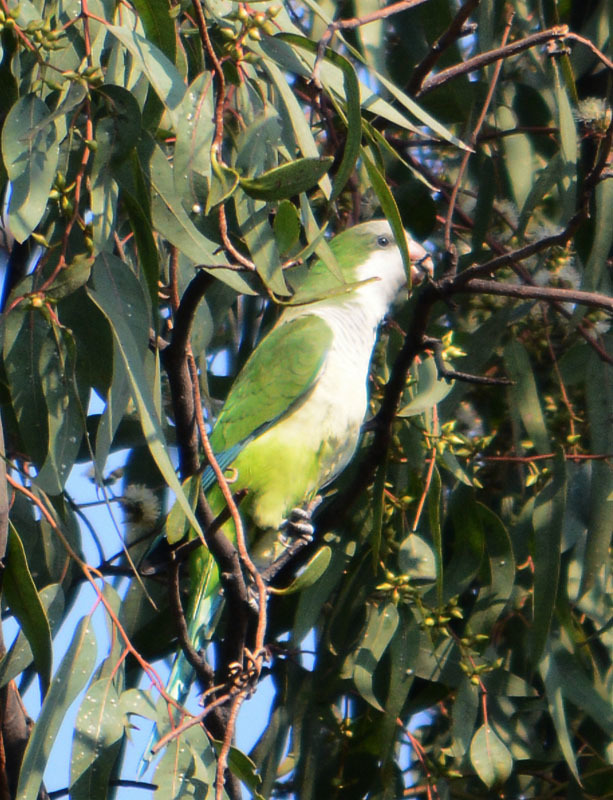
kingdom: Animalia
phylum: Chordata
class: Aves
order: Psittaciformes
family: Psittacidae
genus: Myiopsitta
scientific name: Myiopsitta monachus
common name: Monk parakeet
